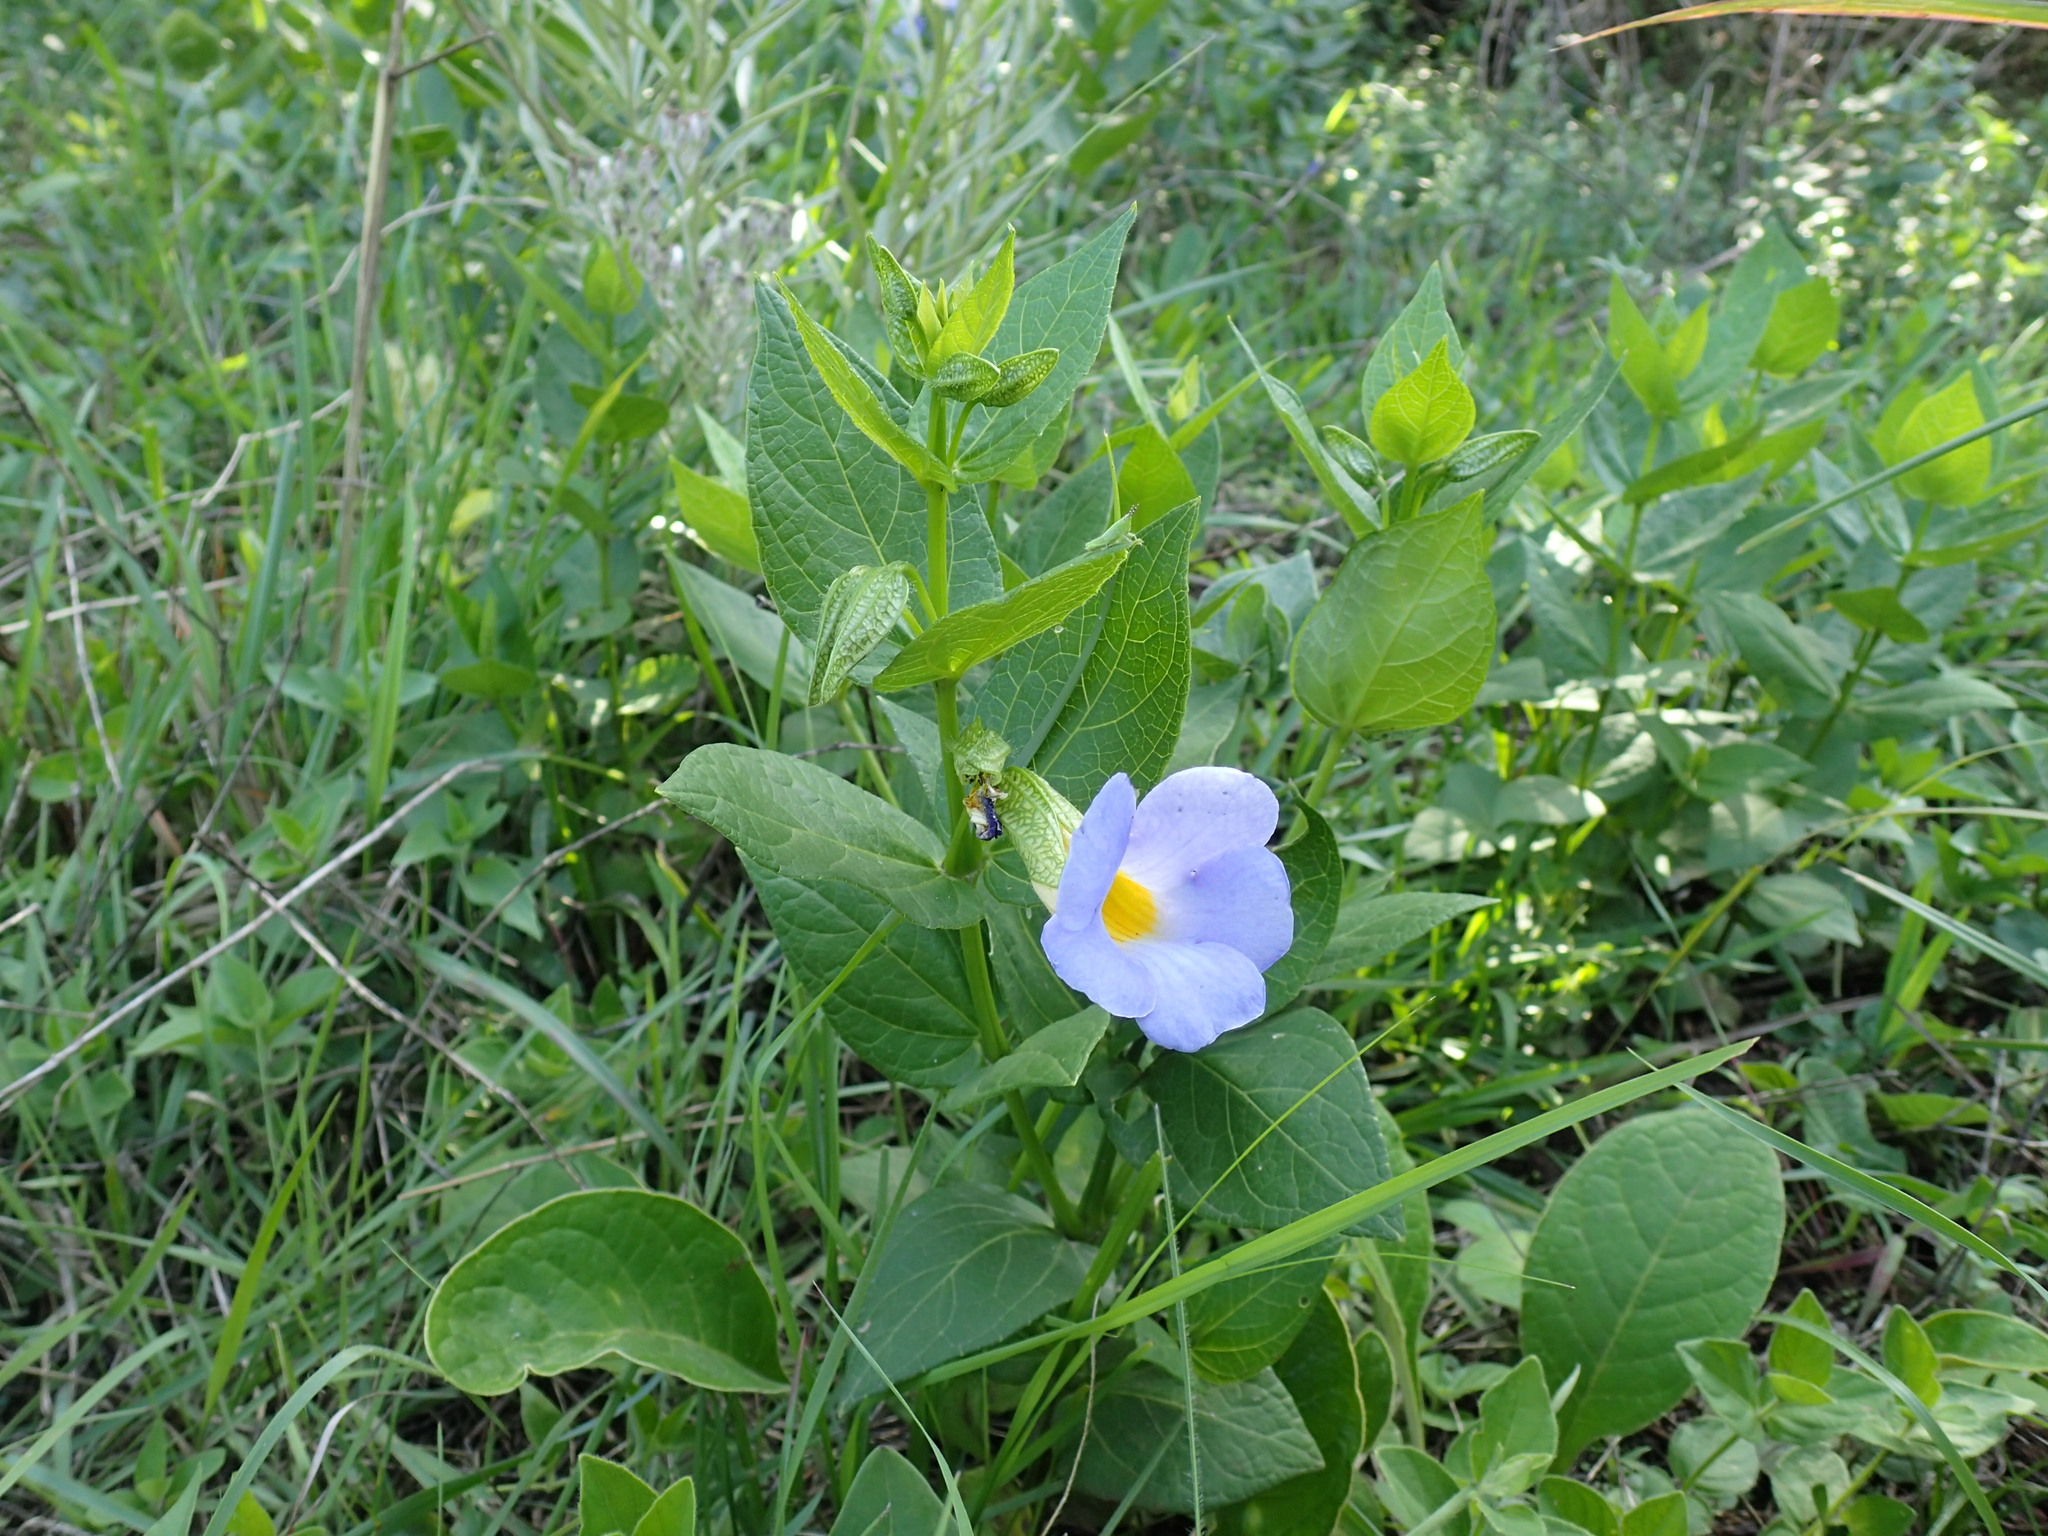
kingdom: Plantae
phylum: Tracheophyta
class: Magnoliopsida
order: Lamiales
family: Acanthaceae
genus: Thunbergia
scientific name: Thunbergia natalensis
